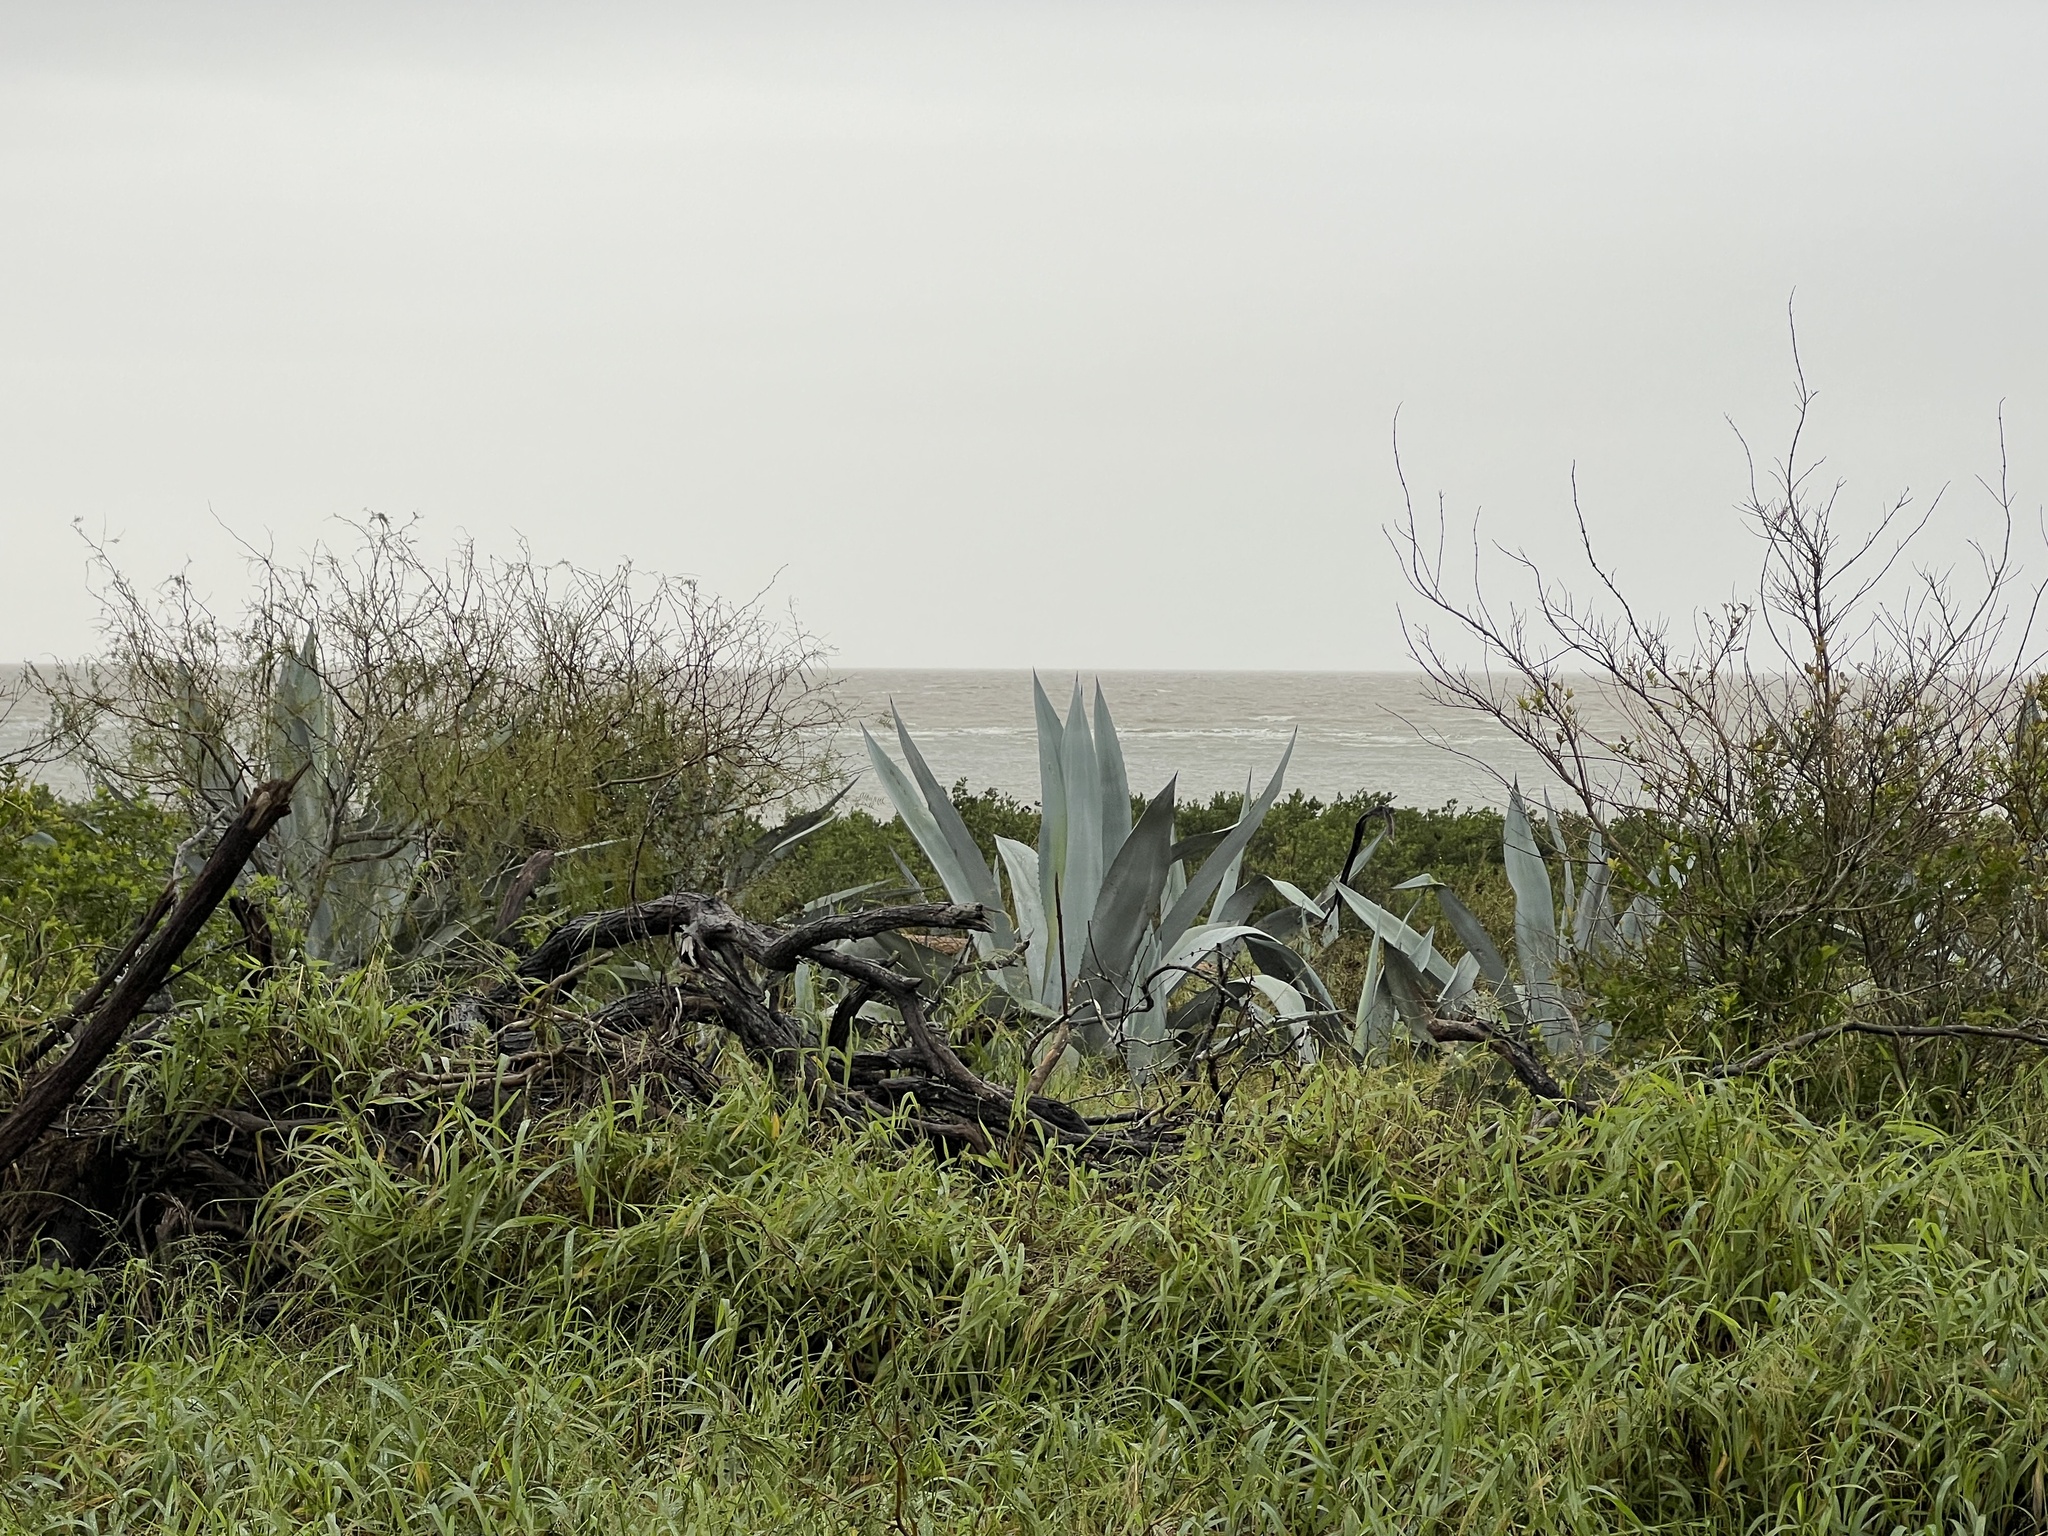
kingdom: Plantae
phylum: Tracheophyta
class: Liliopsida
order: Asparagales
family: Asparagaceae
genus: Agave
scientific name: Agave americana
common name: Centuryplant
